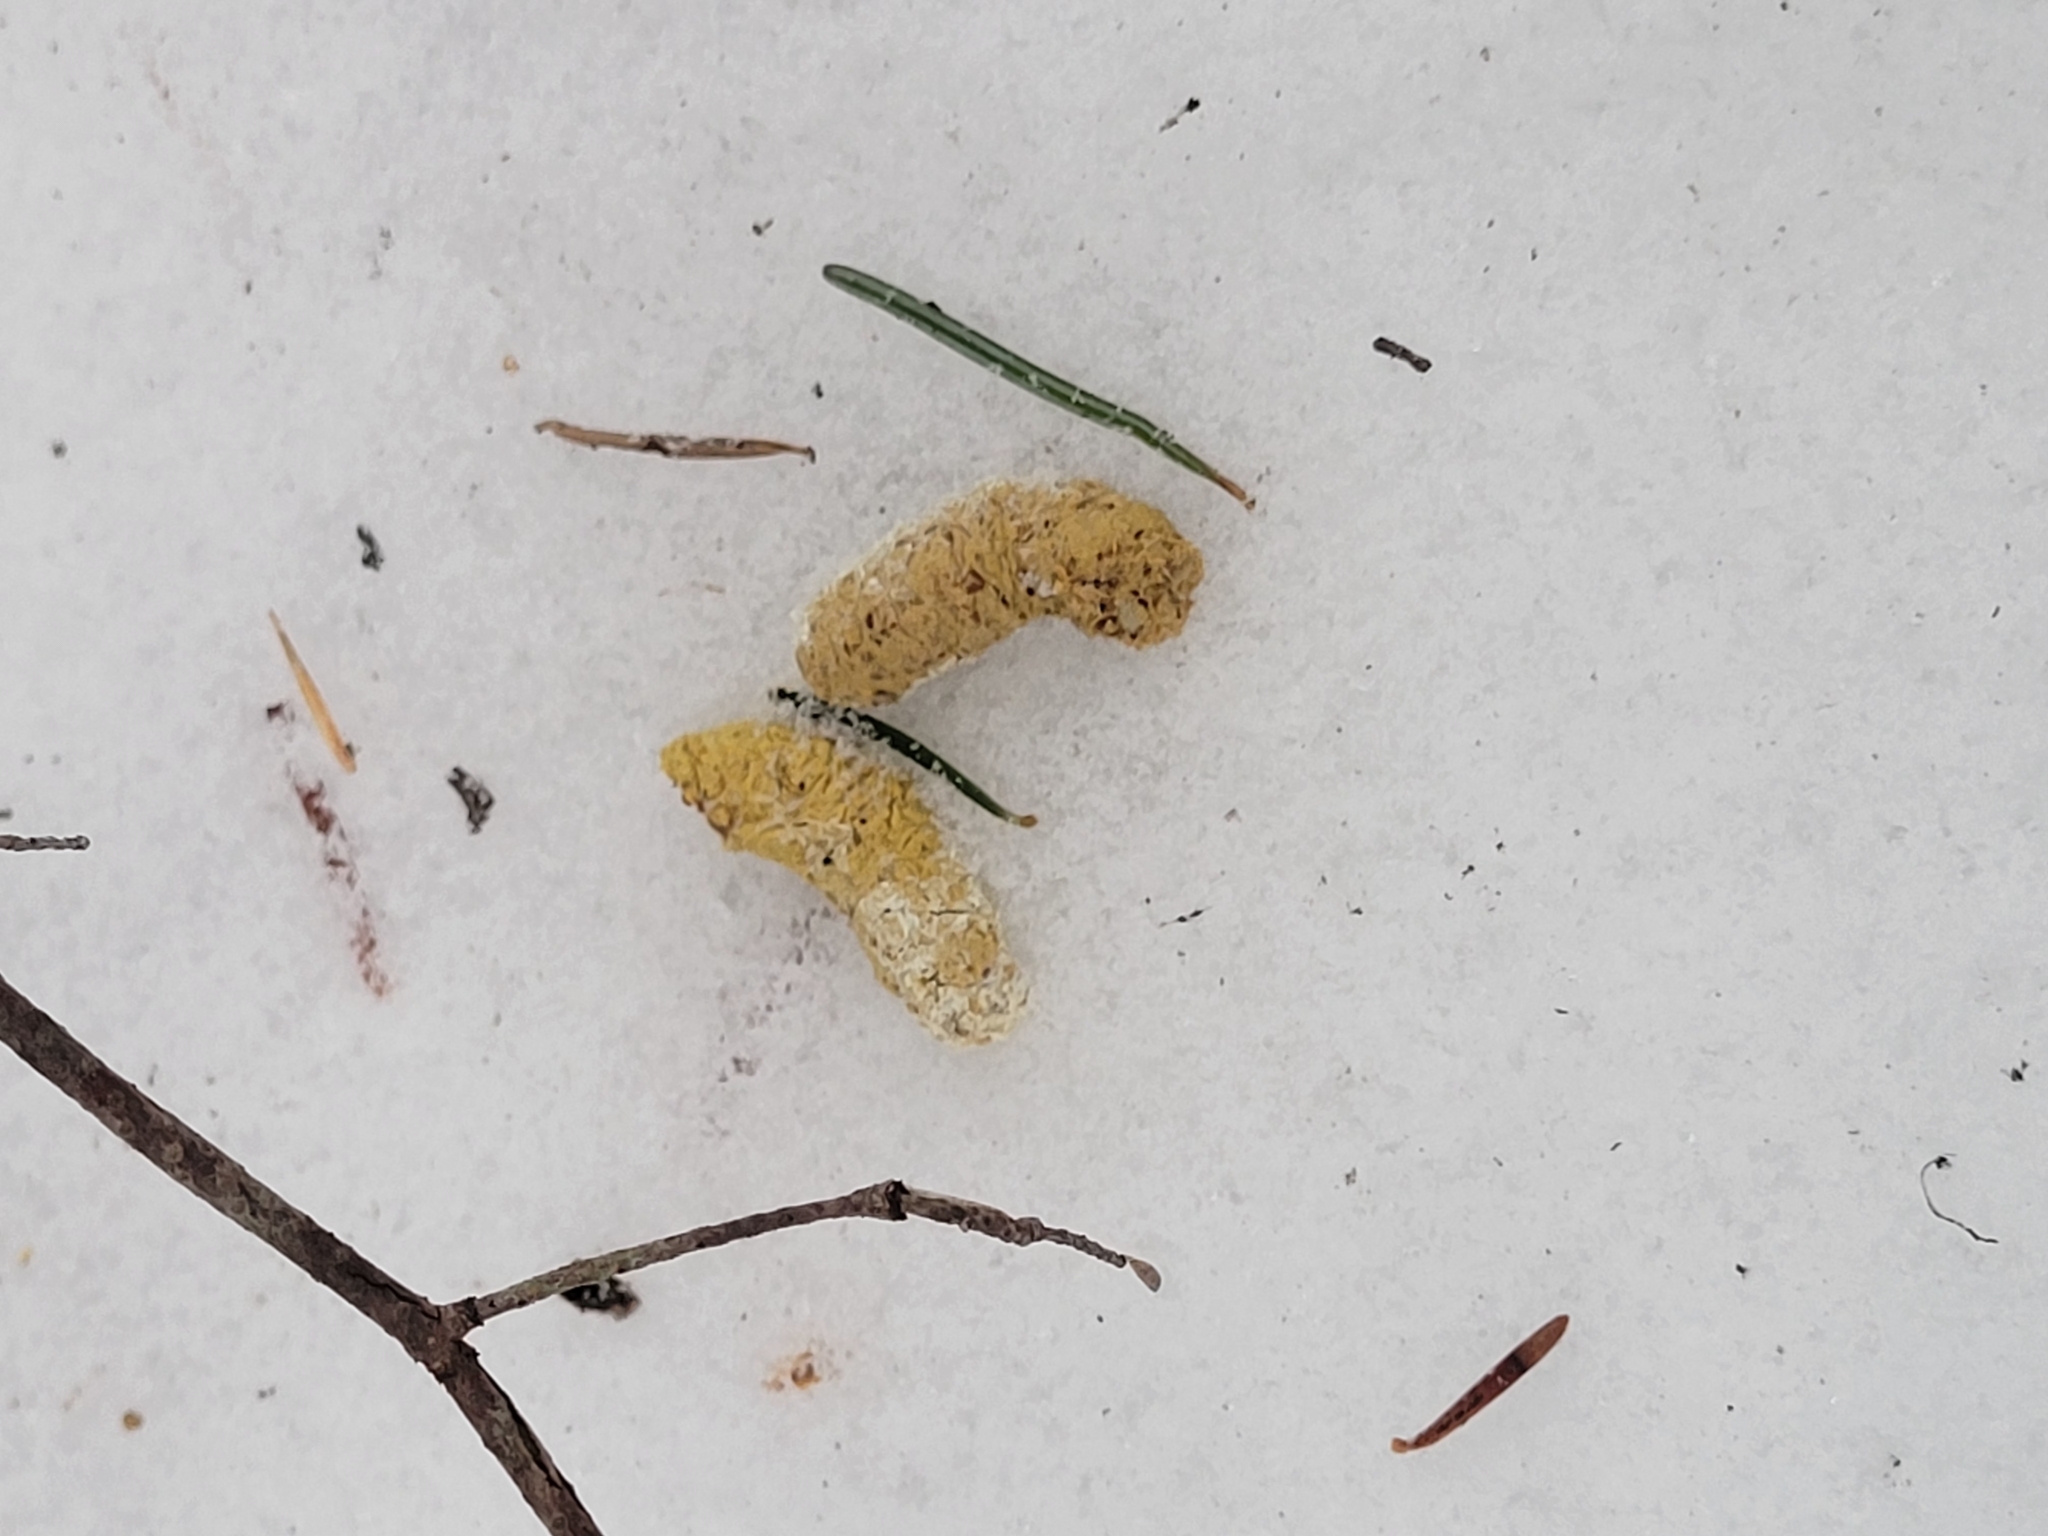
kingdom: Animalia
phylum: Chordata
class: Aves
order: Galliformes
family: Phasianidae
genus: Bonasa
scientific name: Bonasa umbellus
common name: Ruffed grouse
